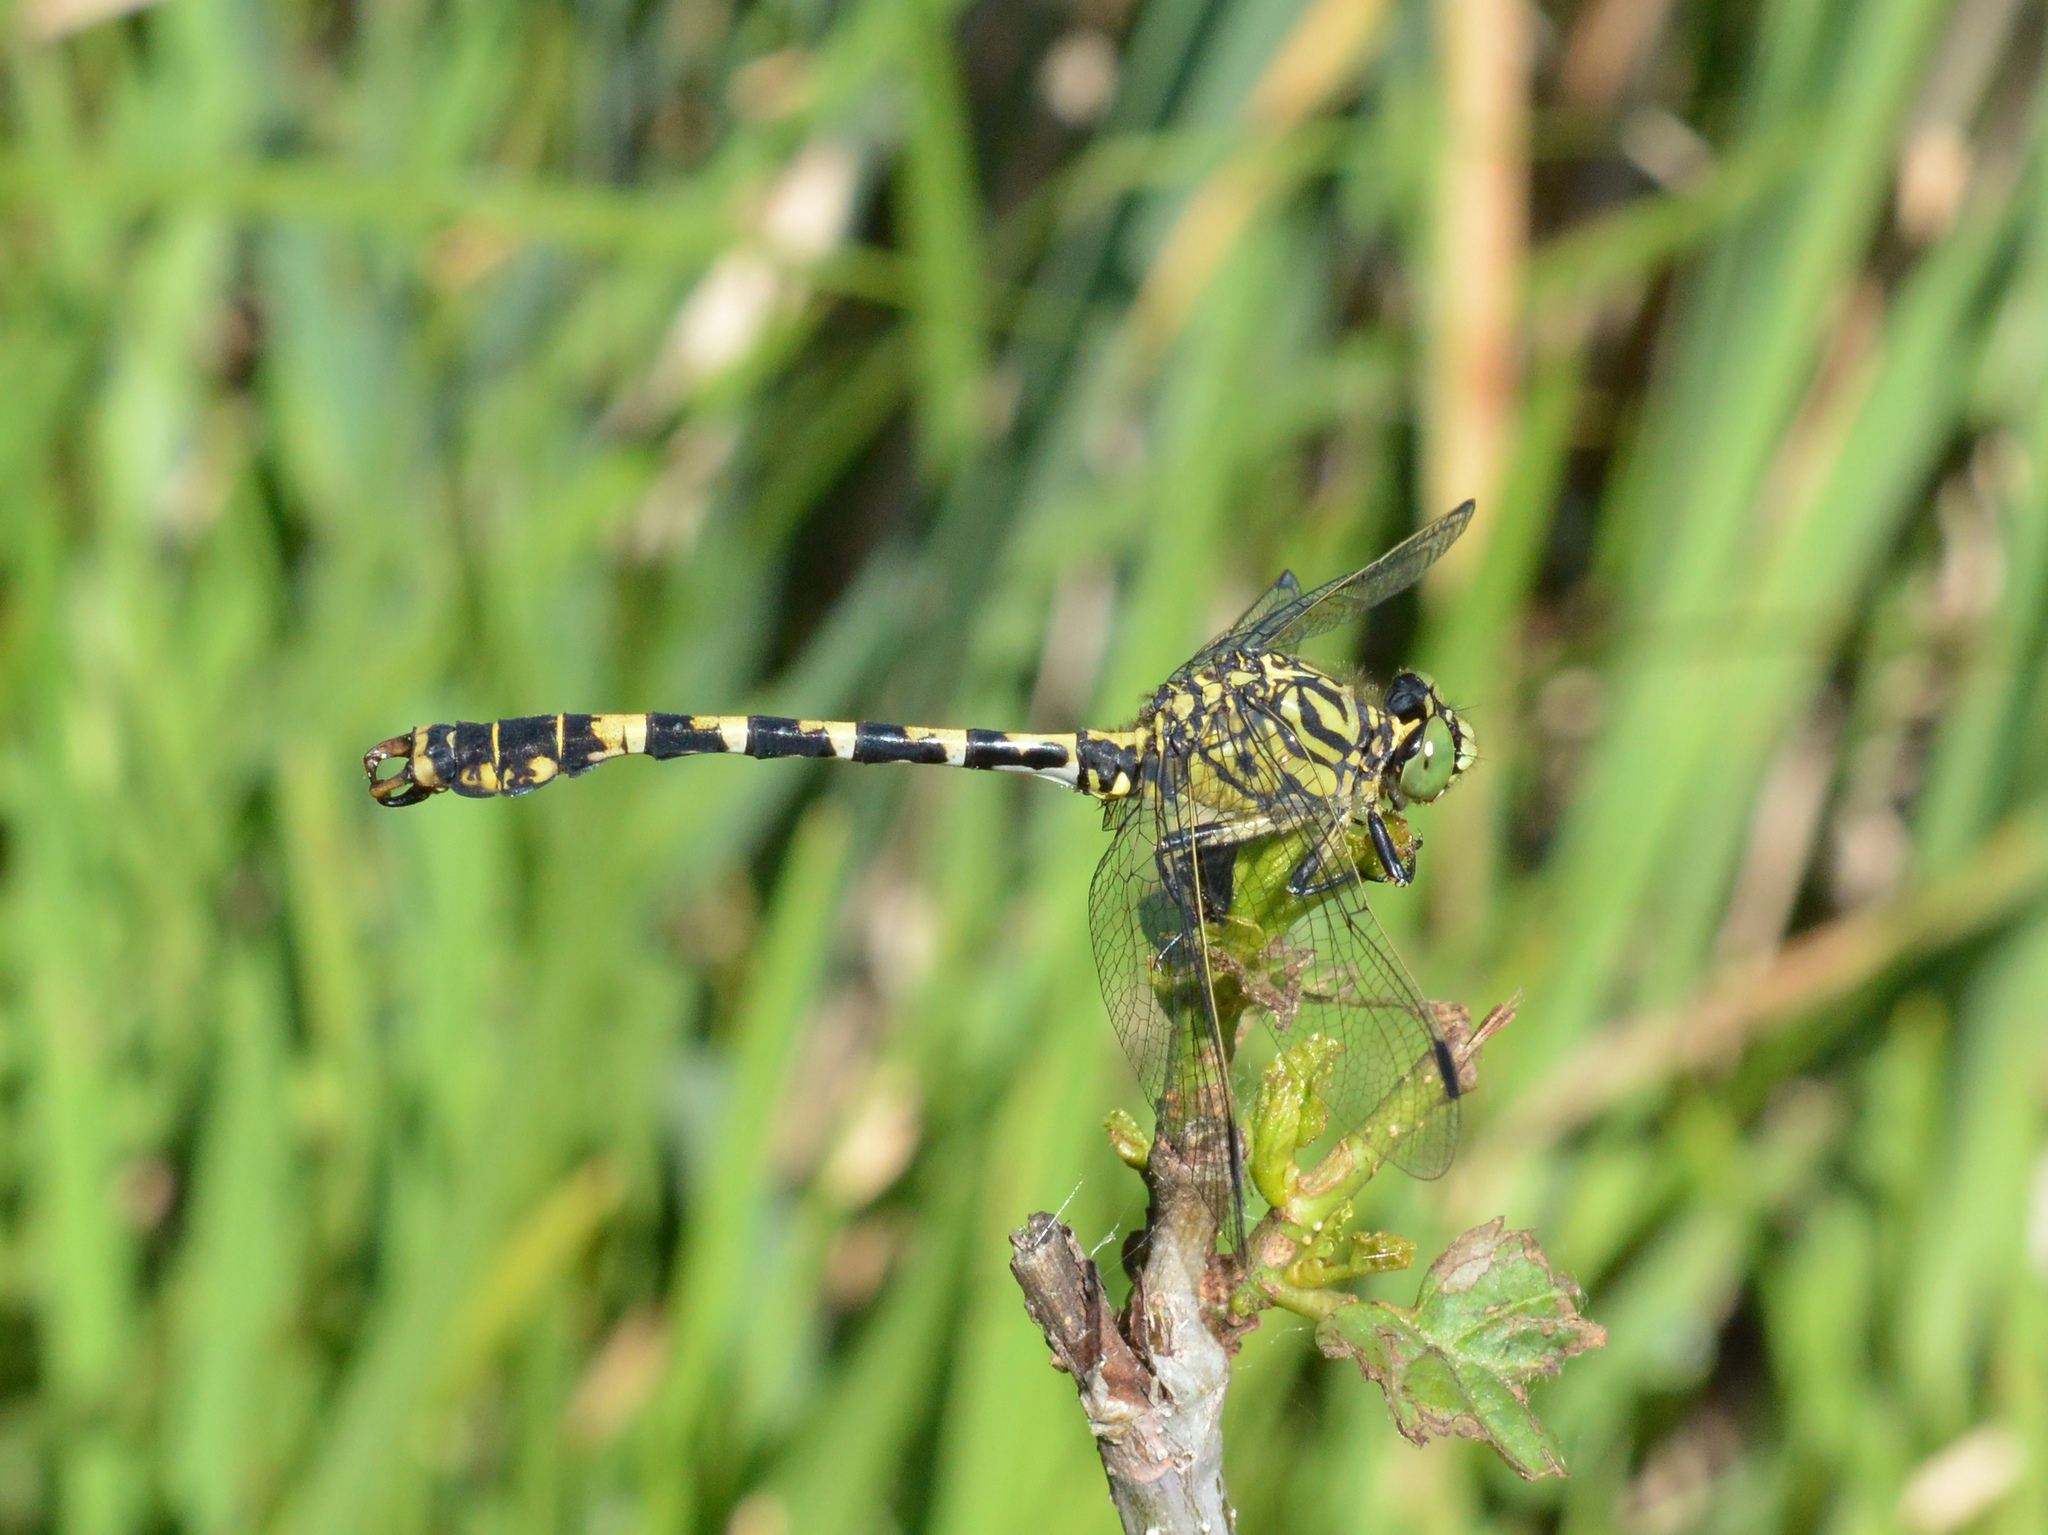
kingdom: Animalia
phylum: Arthropoda
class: Insecta
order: Odonata
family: Gomphidae
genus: Onychogomphus
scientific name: Onychogomphus forcipatus
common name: Small pincertail
